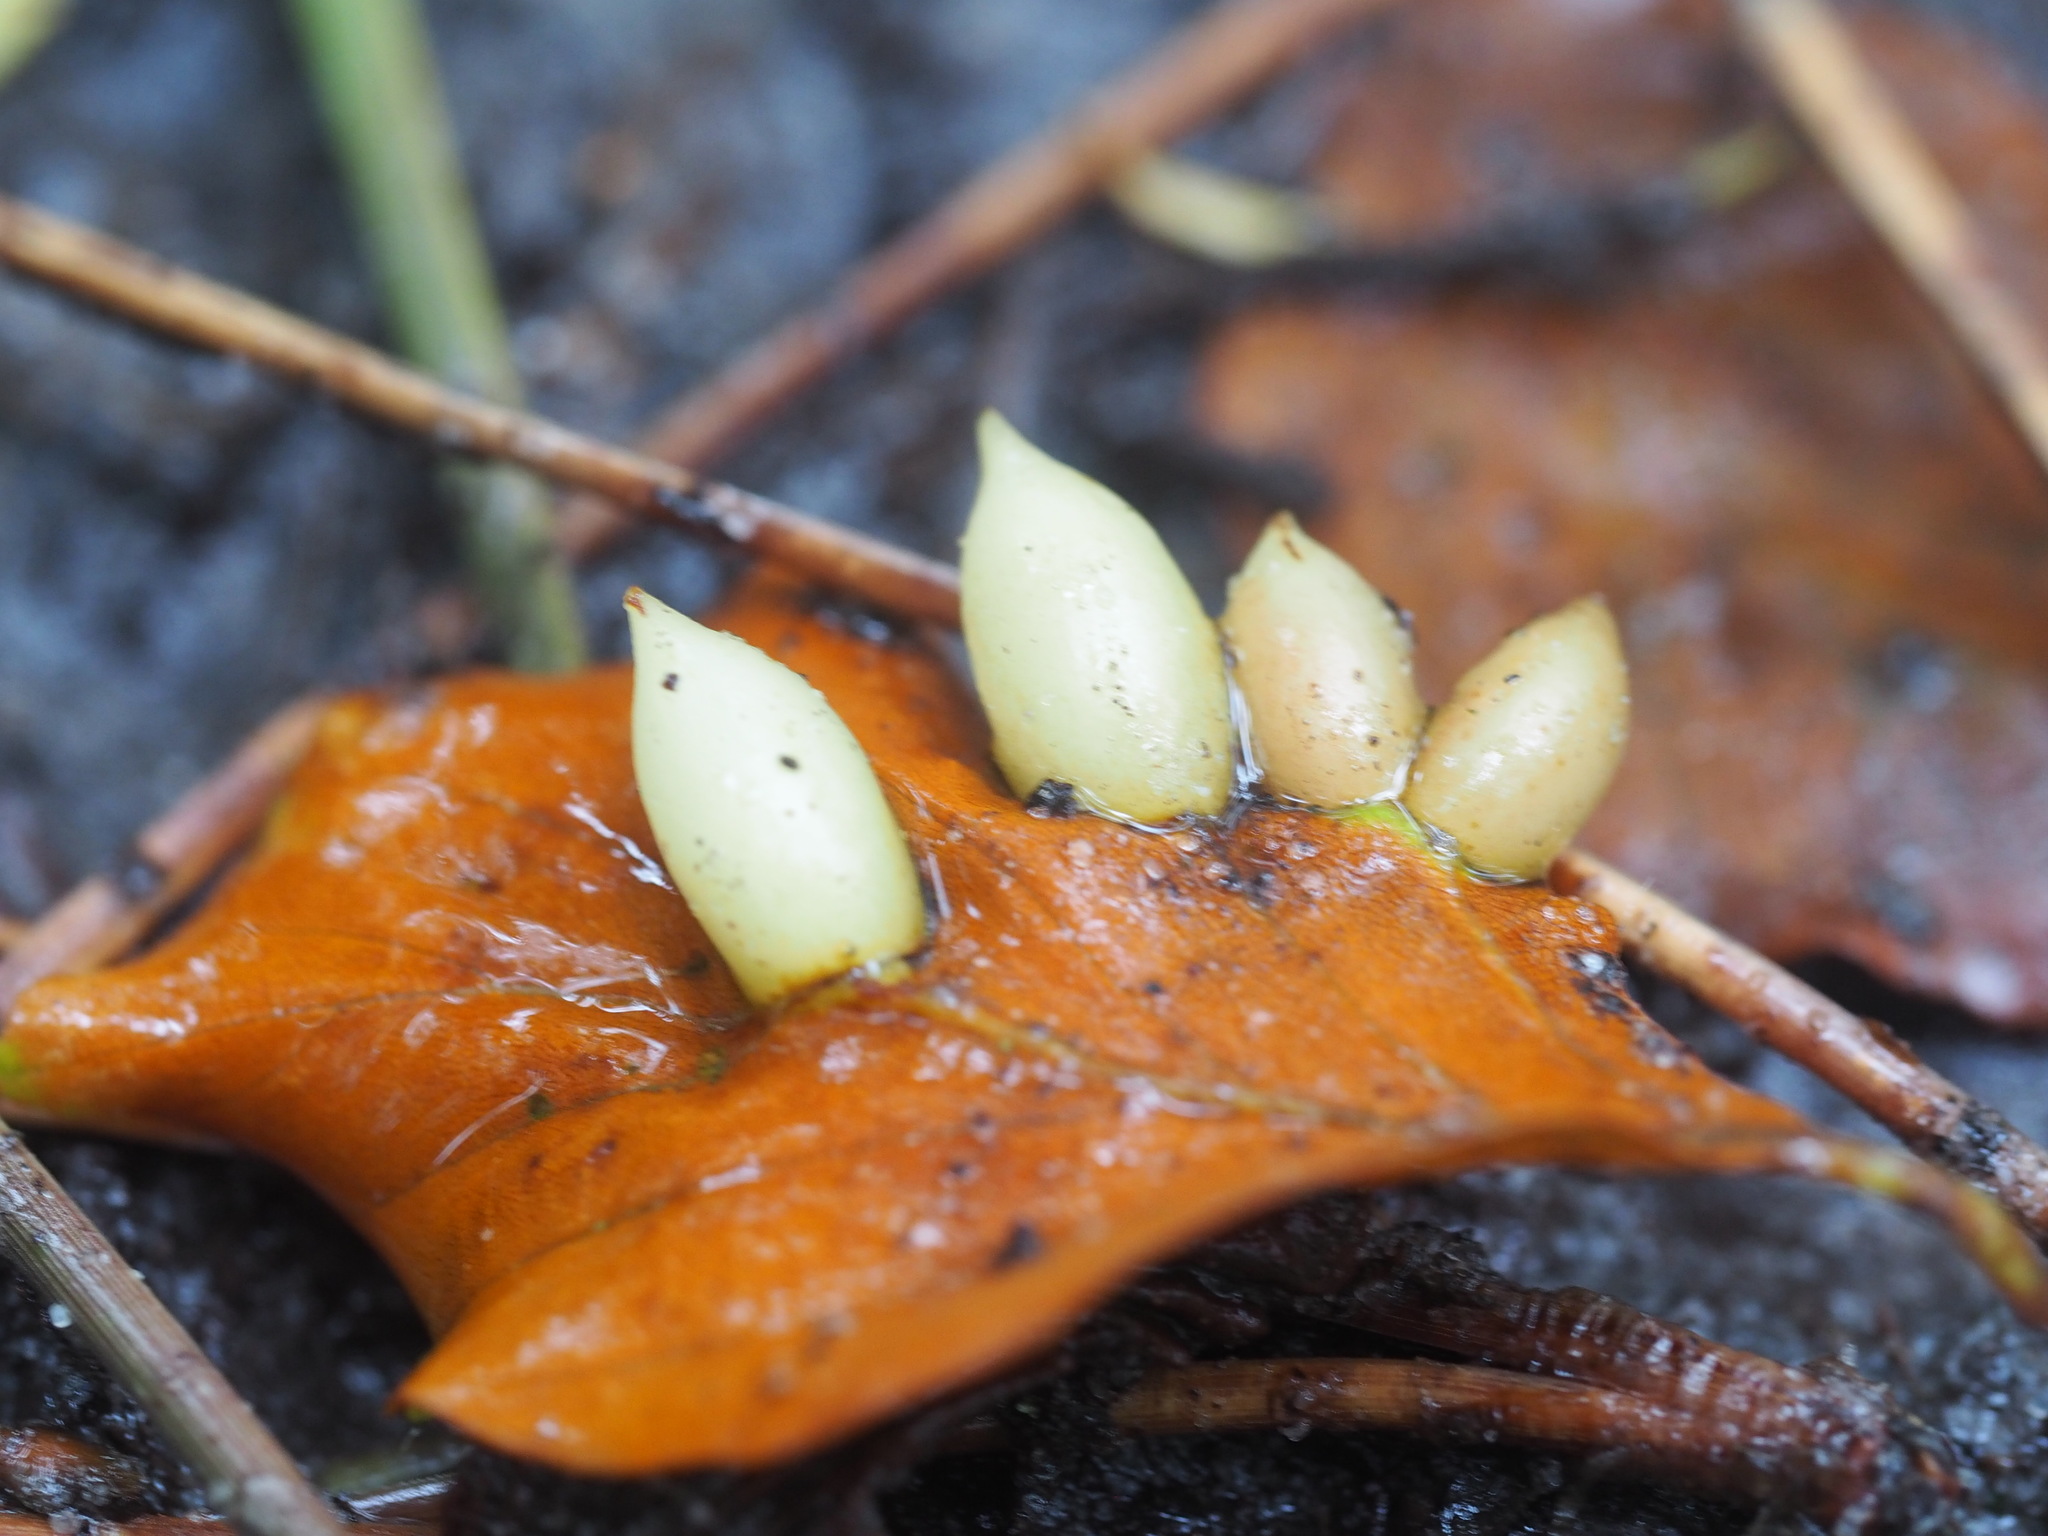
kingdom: Animalia
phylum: Arthropoda
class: Insecta
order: Diptera
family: Cecidomyiidae
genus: Mikiola
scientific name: Mikiola fagi
